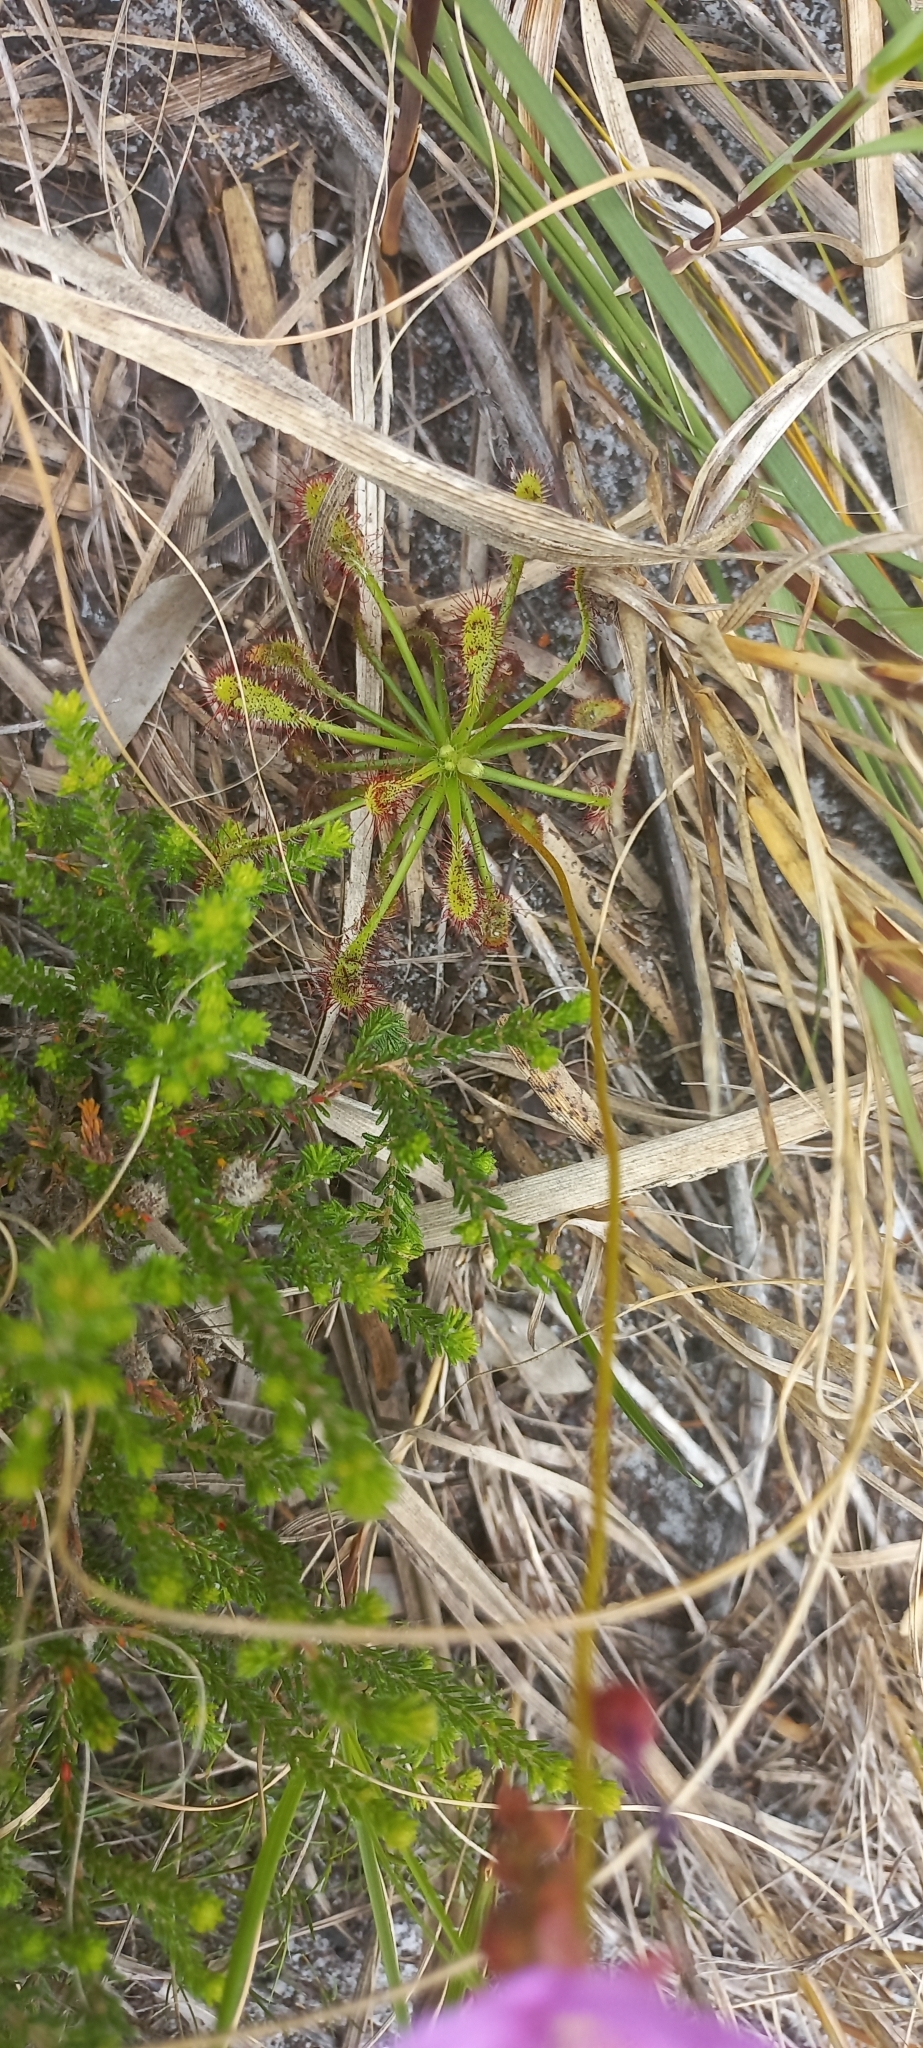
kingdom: Plantae
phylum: Tracheophyta
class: Magnoliopsida
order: Caryophyllales
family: Droseraceae
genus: Drosera
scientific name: Drosera glabripes
